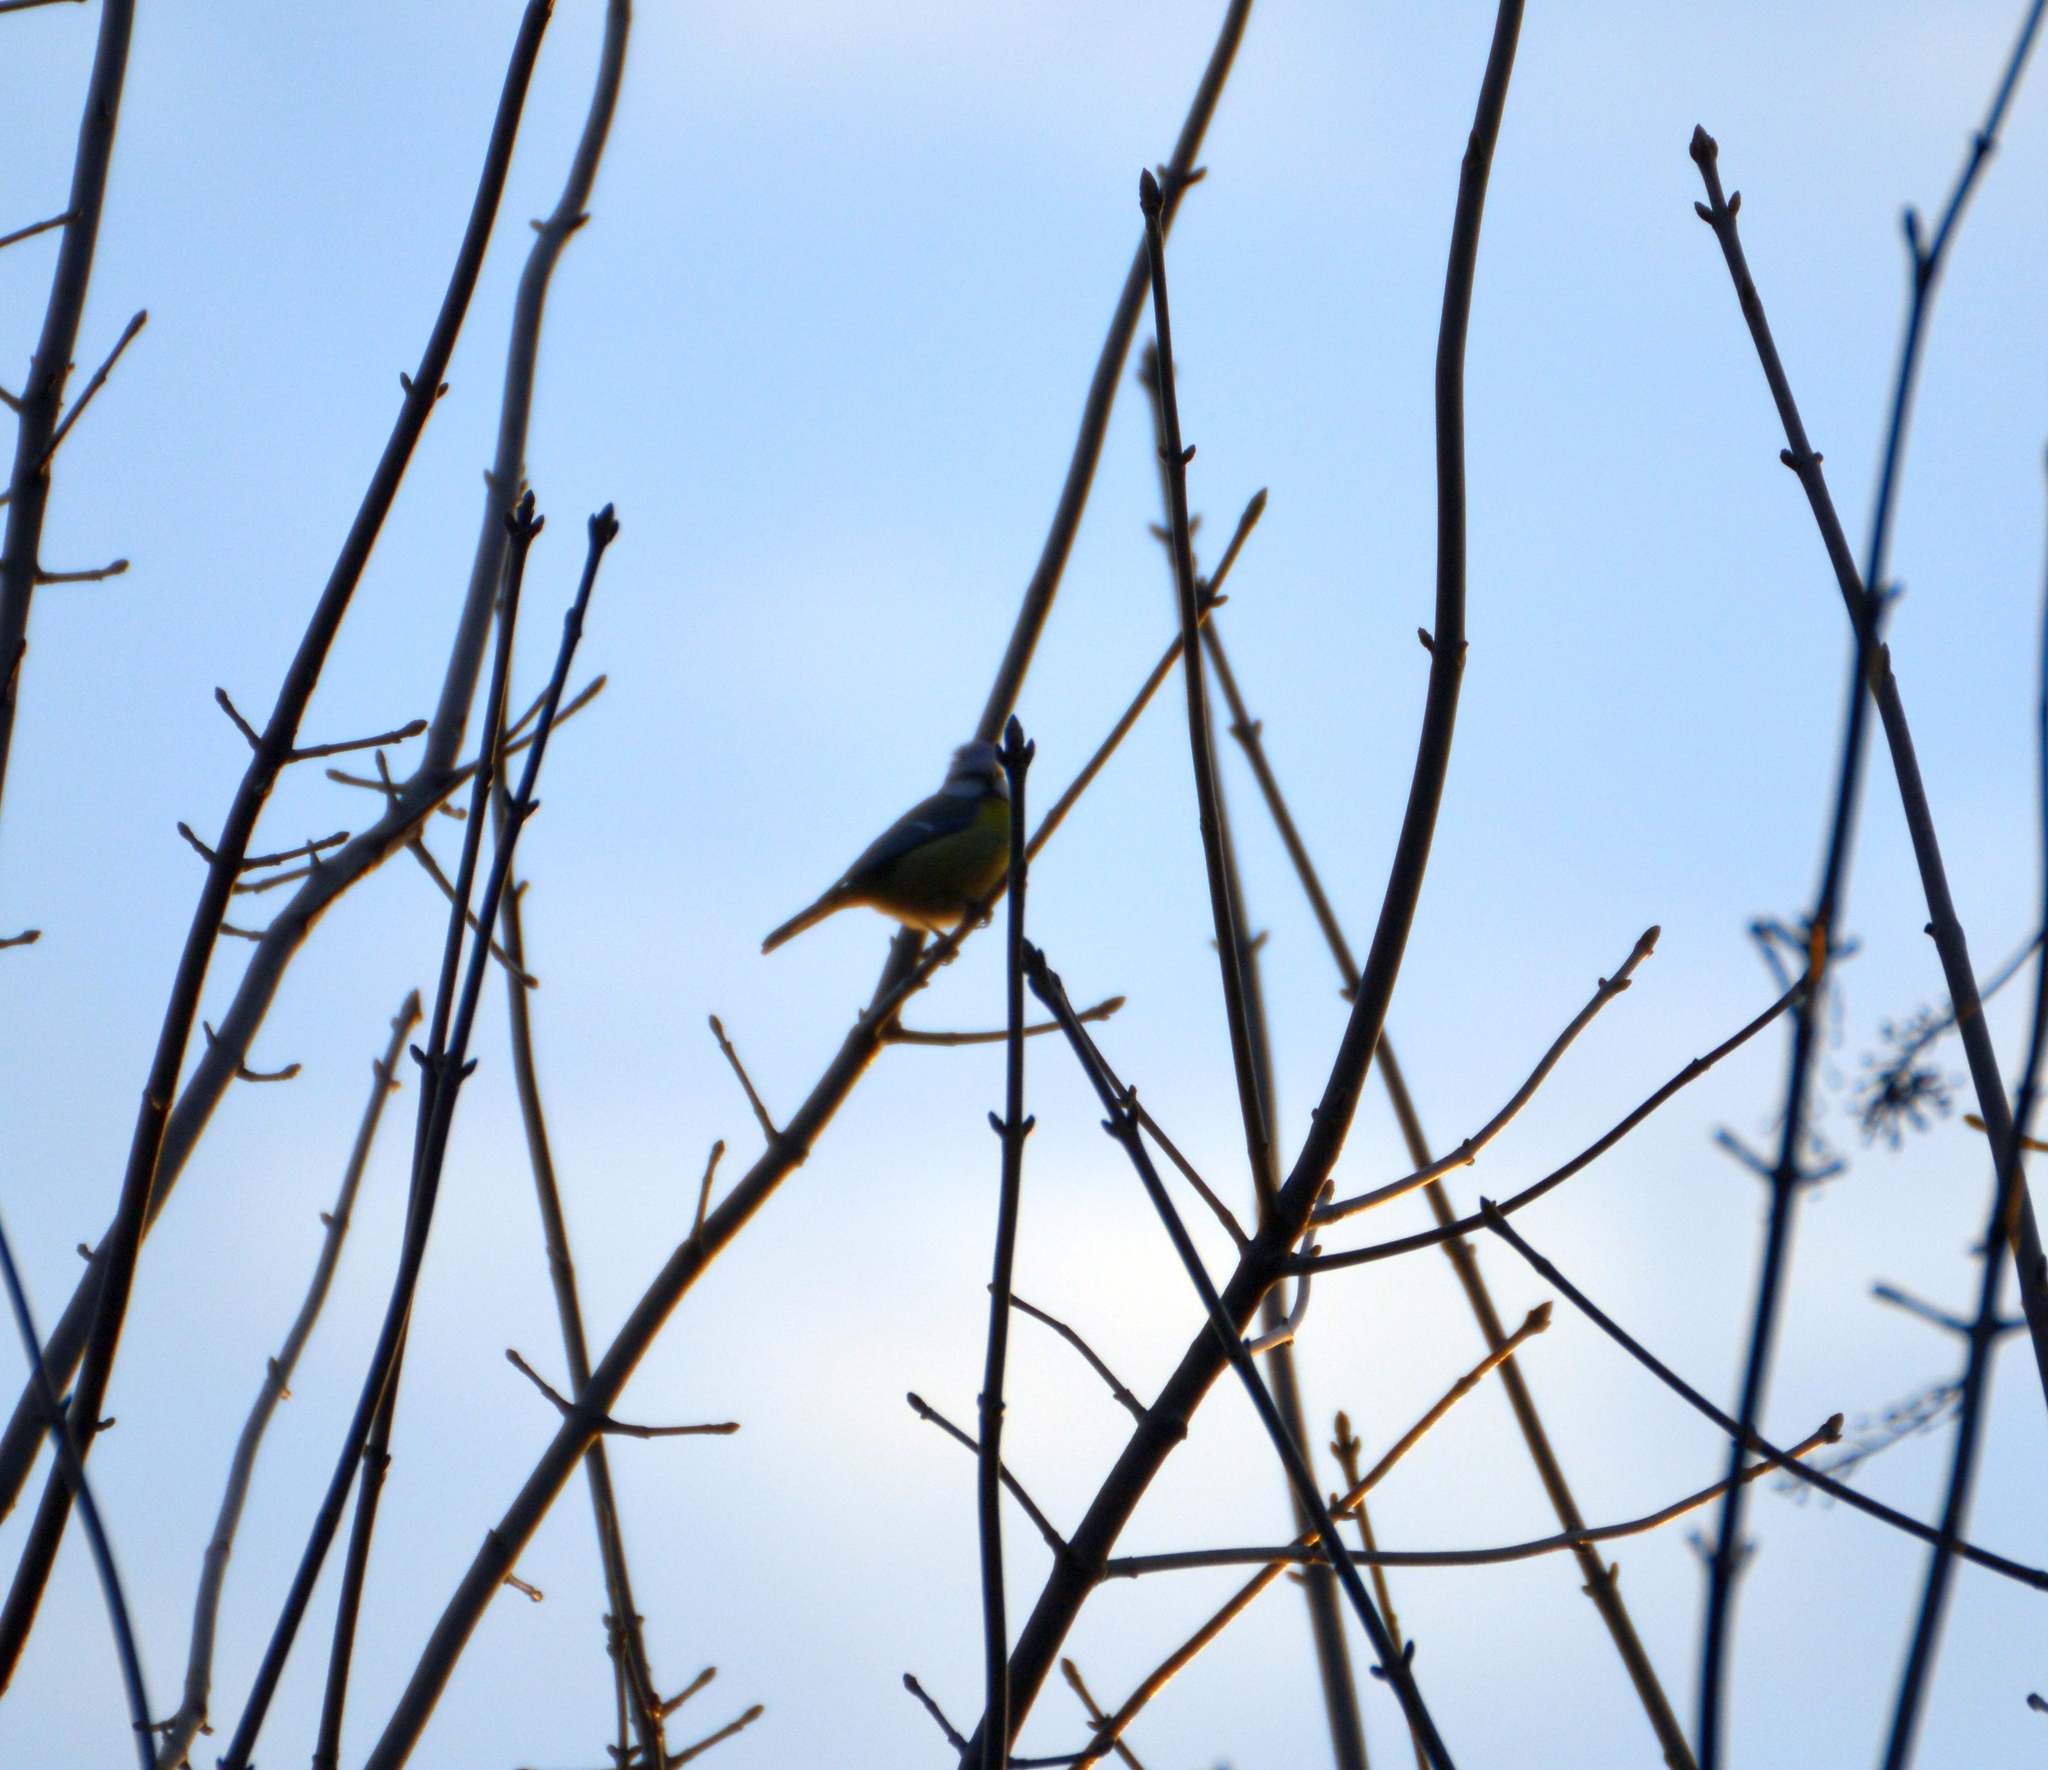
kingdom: Animalia
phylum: Chordata
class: Aves
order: Passeriformes
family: Paridae
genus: Cyanistes
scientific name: Cyanistes caeruleus
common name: Eurasian blue tit
